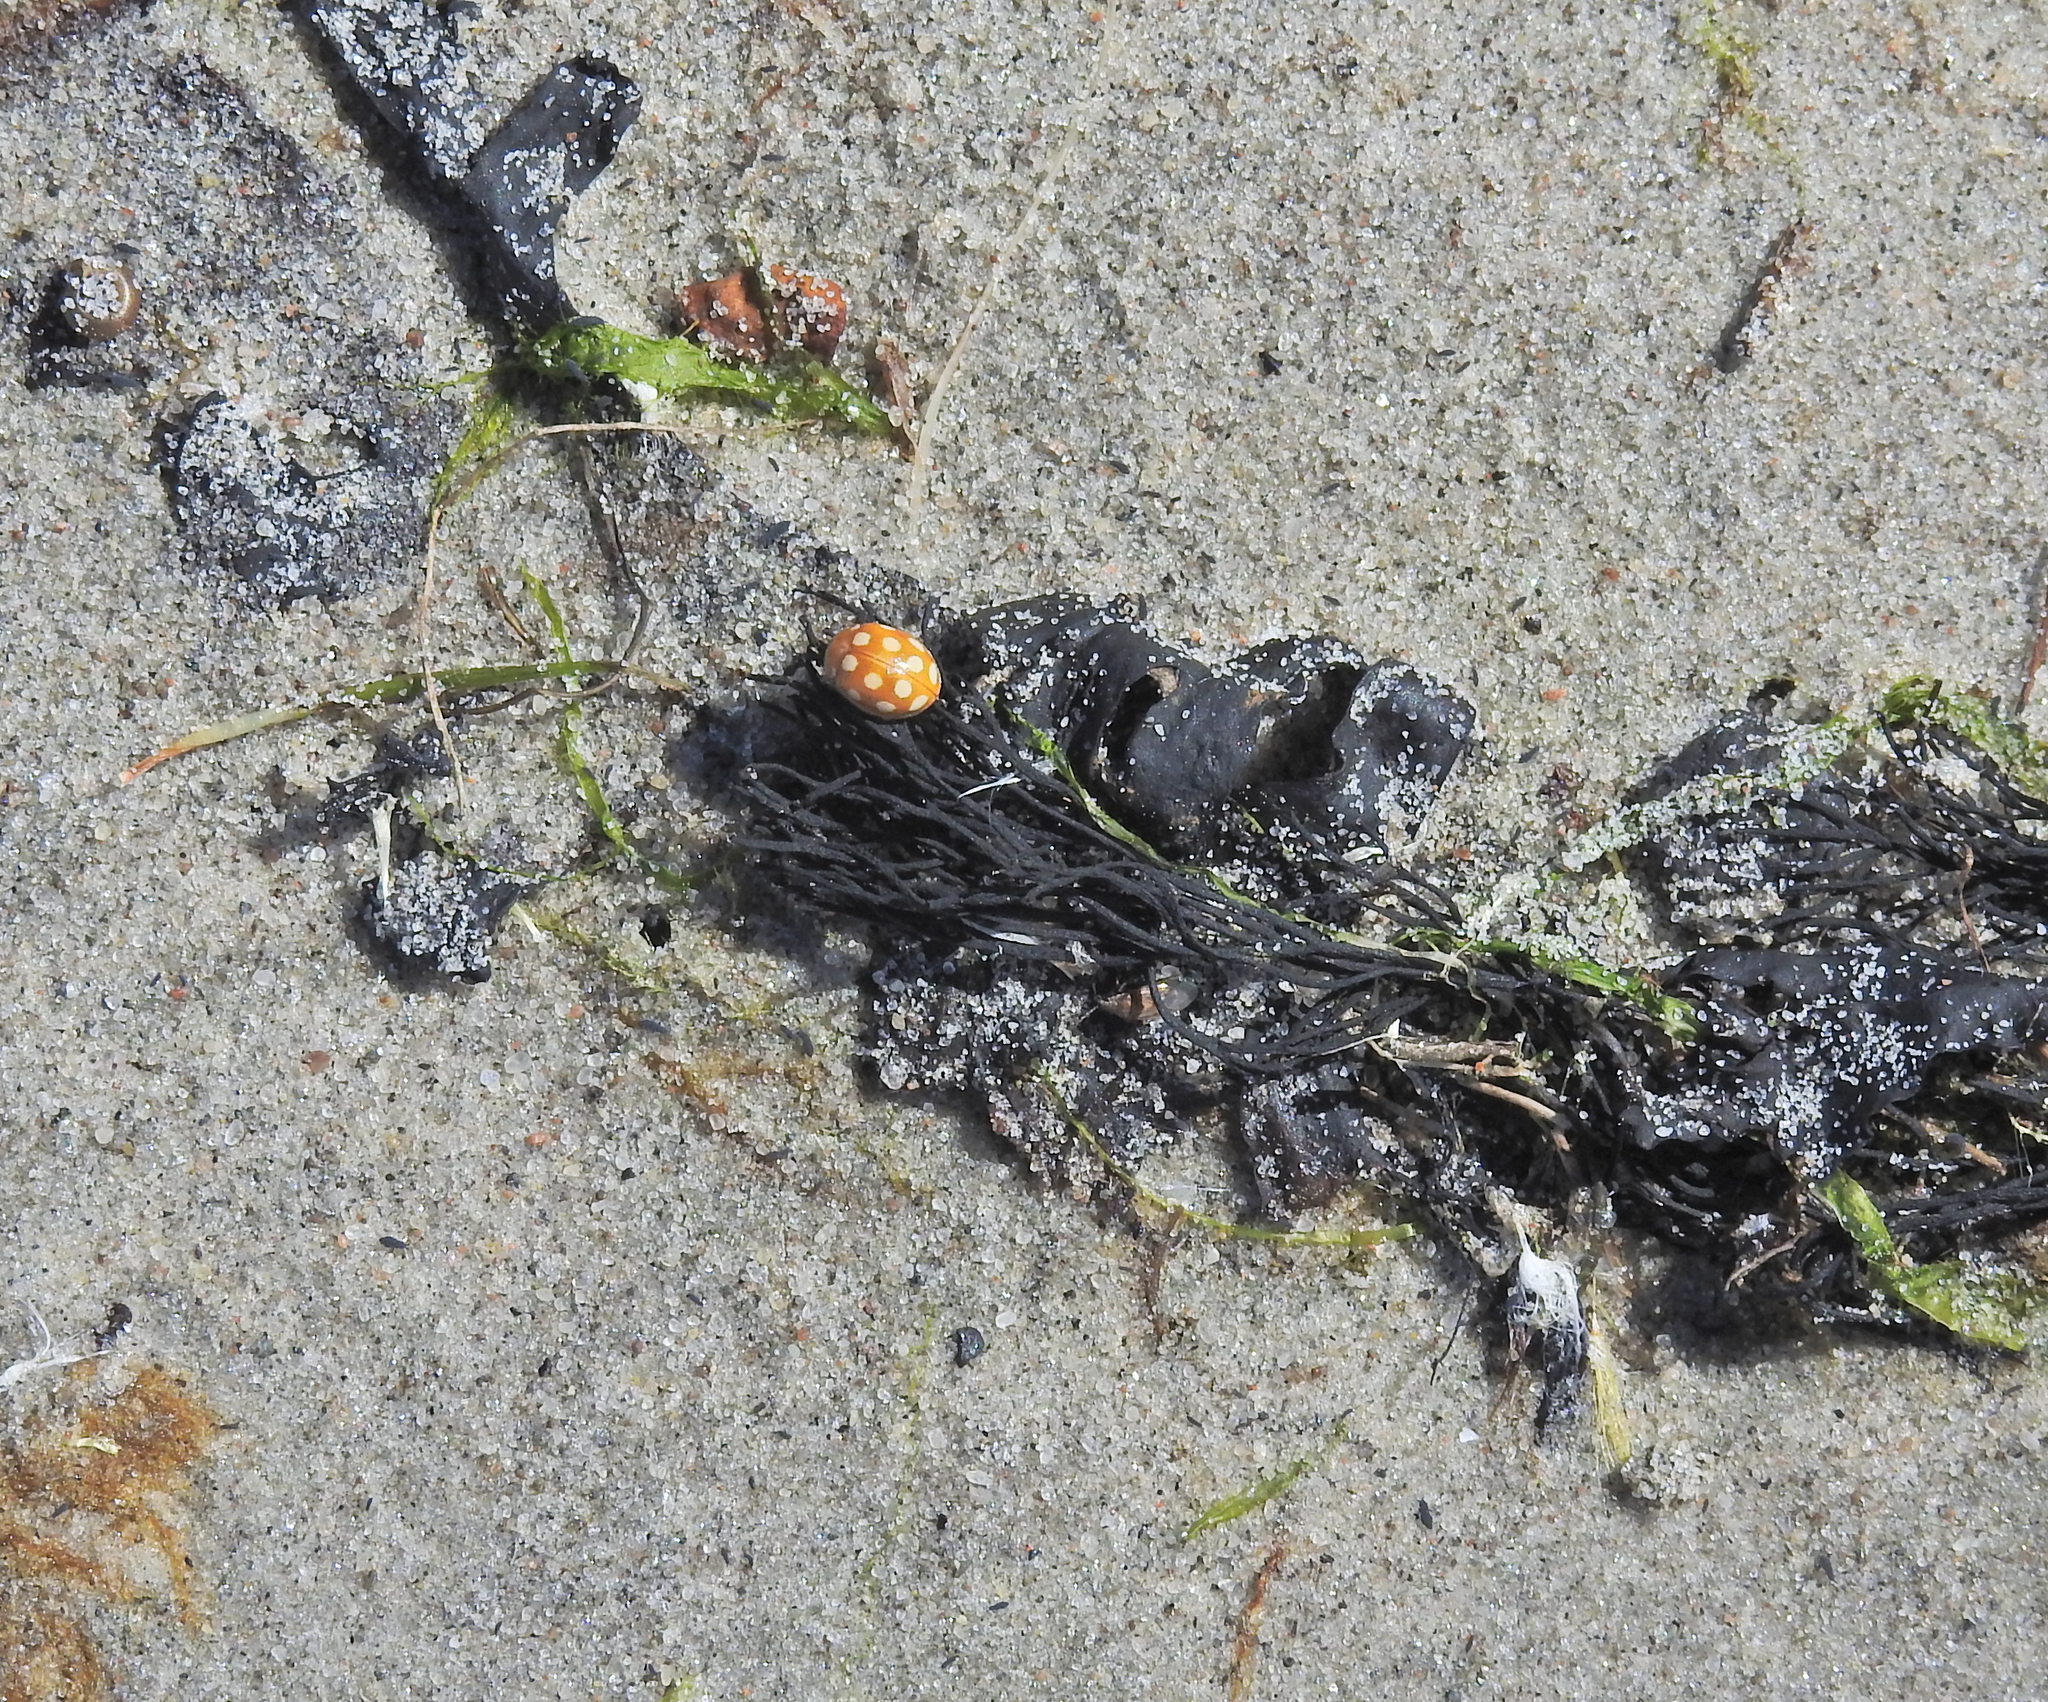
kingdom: Animalia
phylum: Arthropoda
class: Insecta
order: Coleoptera
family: Coccinellidae
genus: Calvia
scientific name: Calvia quindecimguttata
